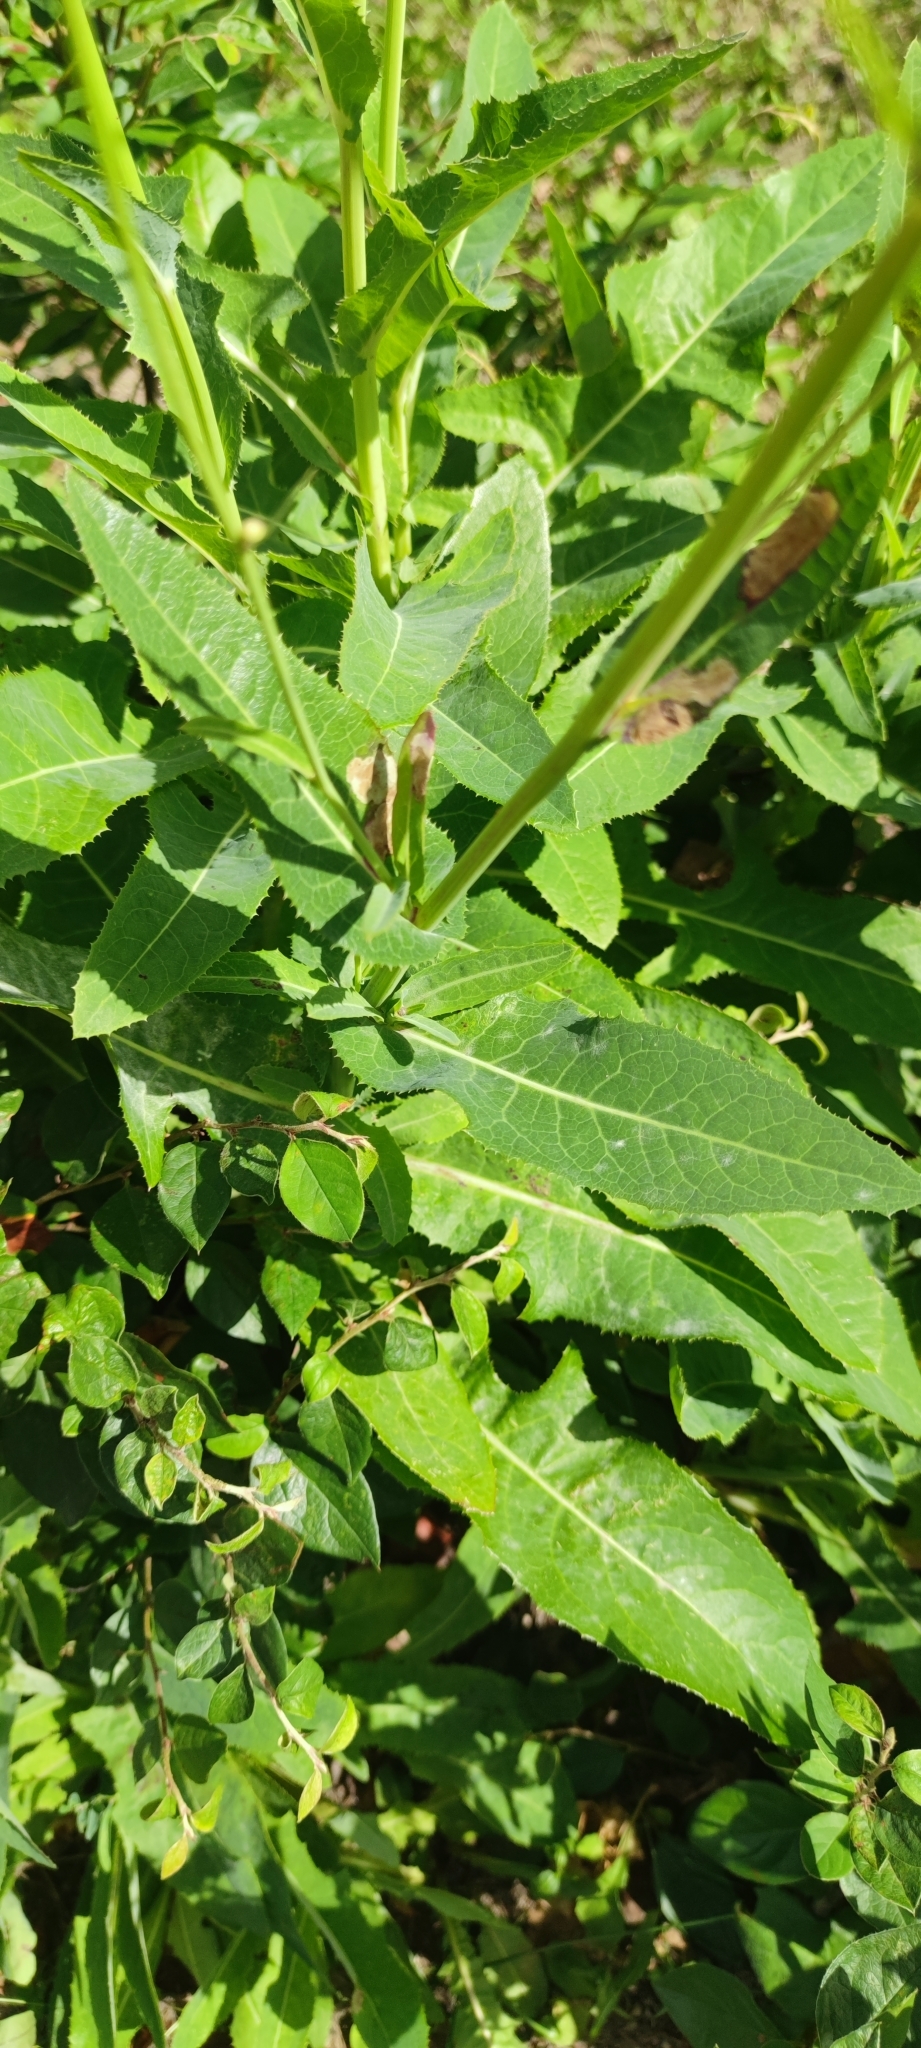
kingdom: Plantae
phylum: Tracheophyta
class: Magnoliopsida
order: Asterales
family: Asteraceae
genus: Sonchus
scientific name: Sonchus arvensis
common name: Perennial sow-thistle
